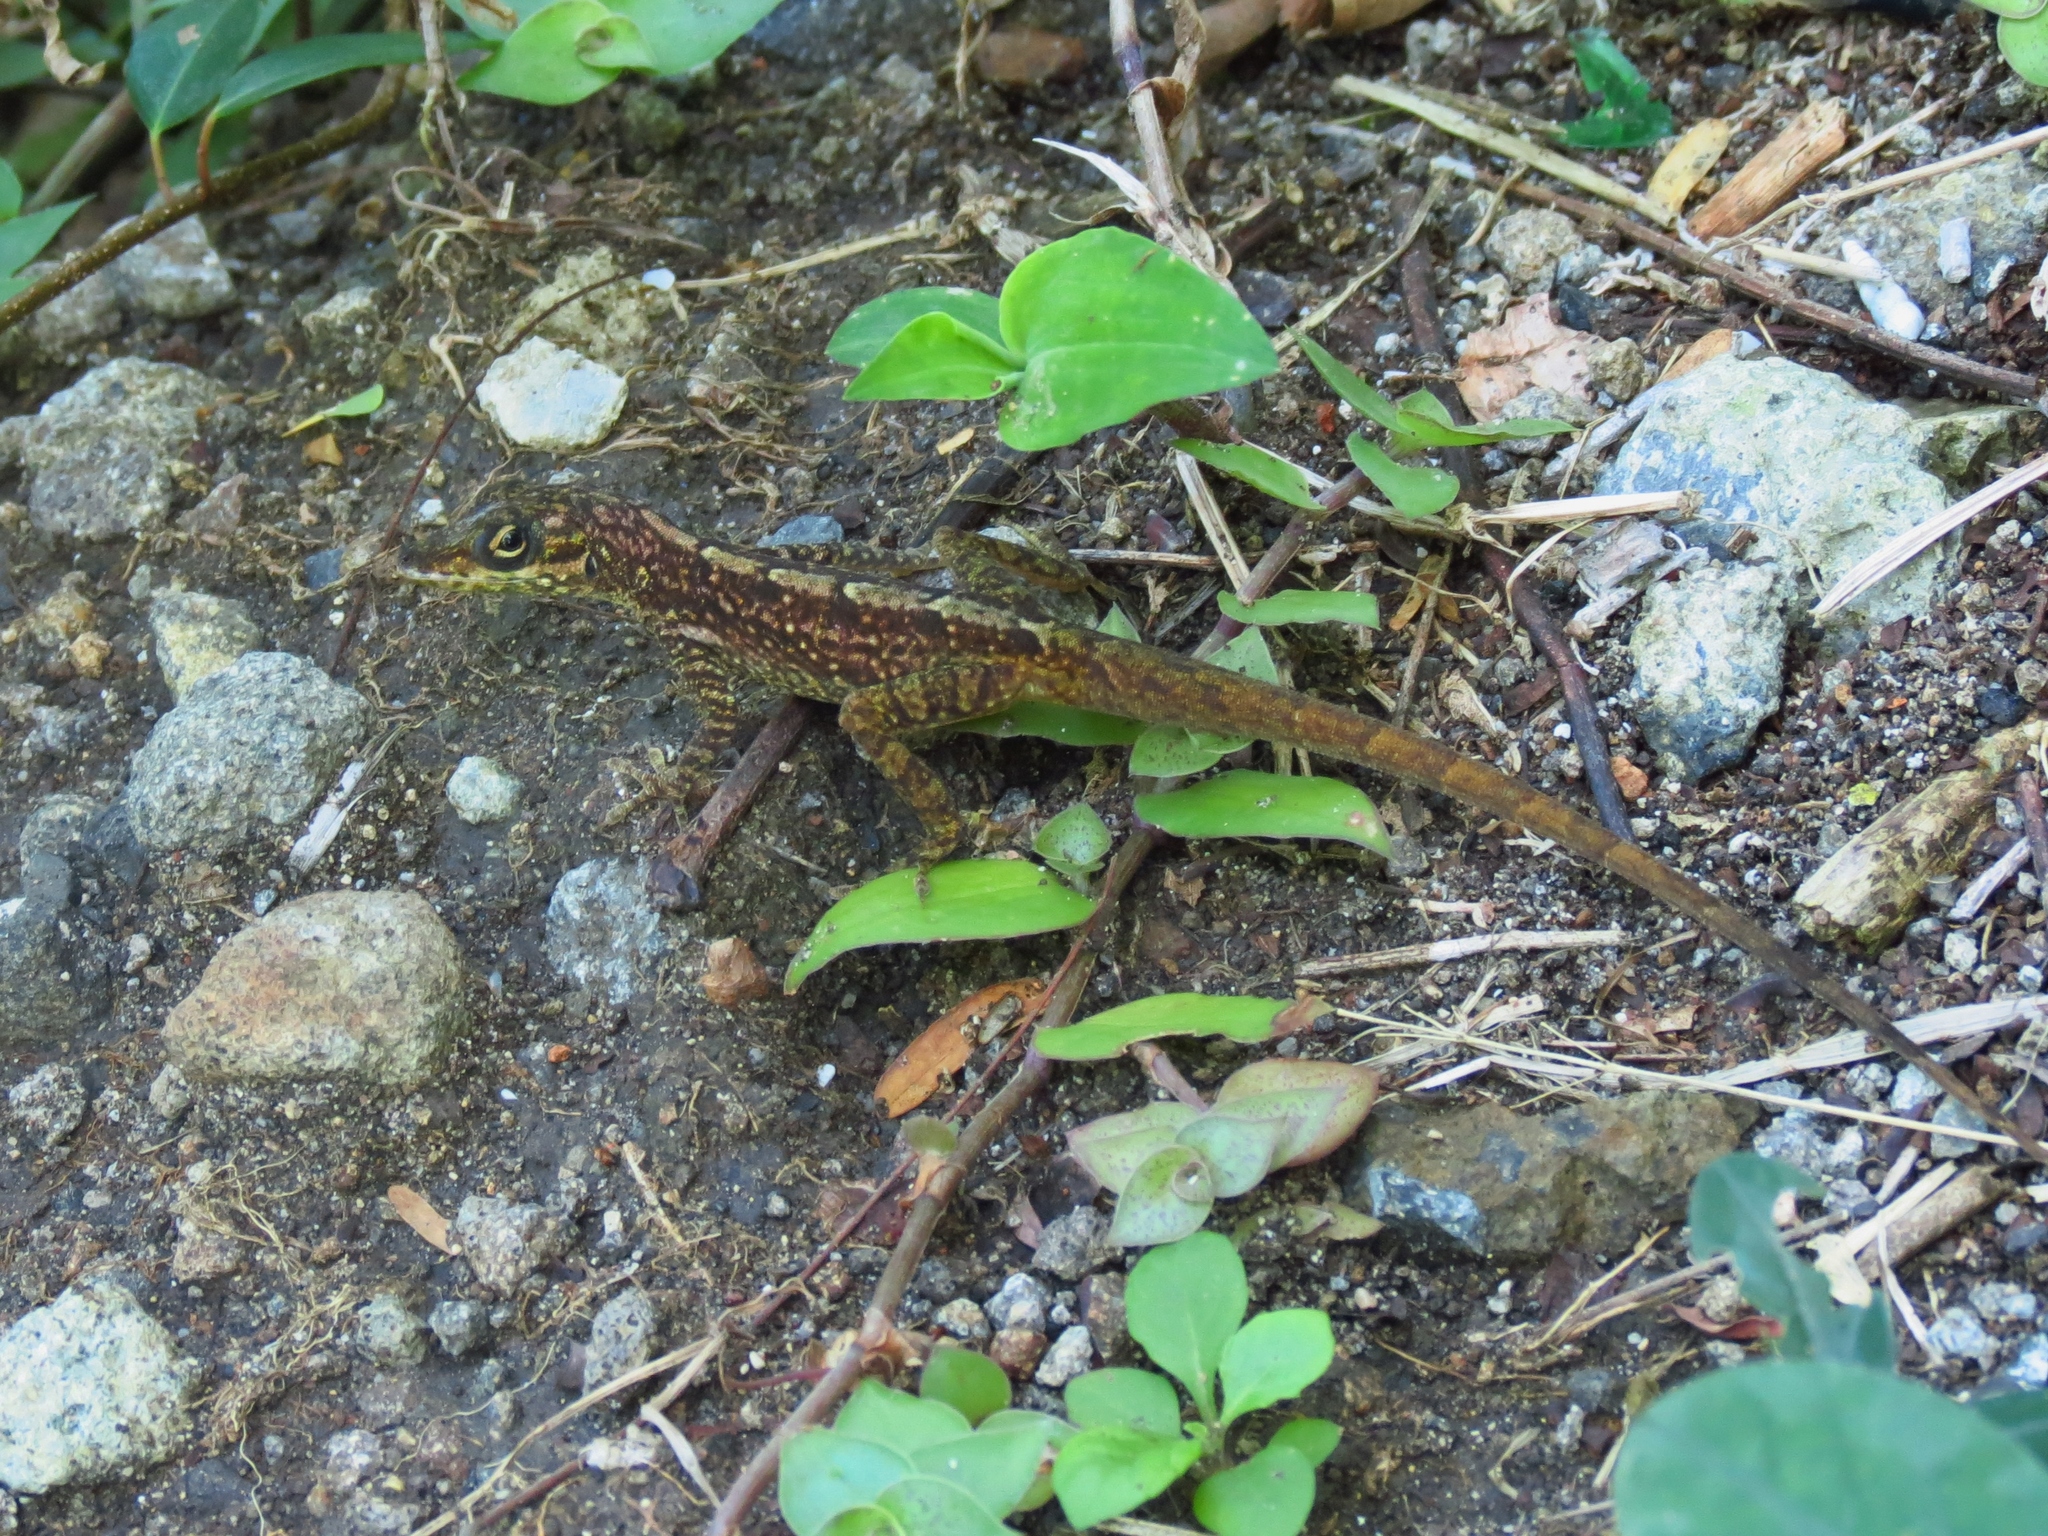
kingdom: Animalia
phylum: Chordata
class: Squamata
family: Dactyloidae
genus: Anolis
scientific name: Anolis roquet
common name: Martinique anole
